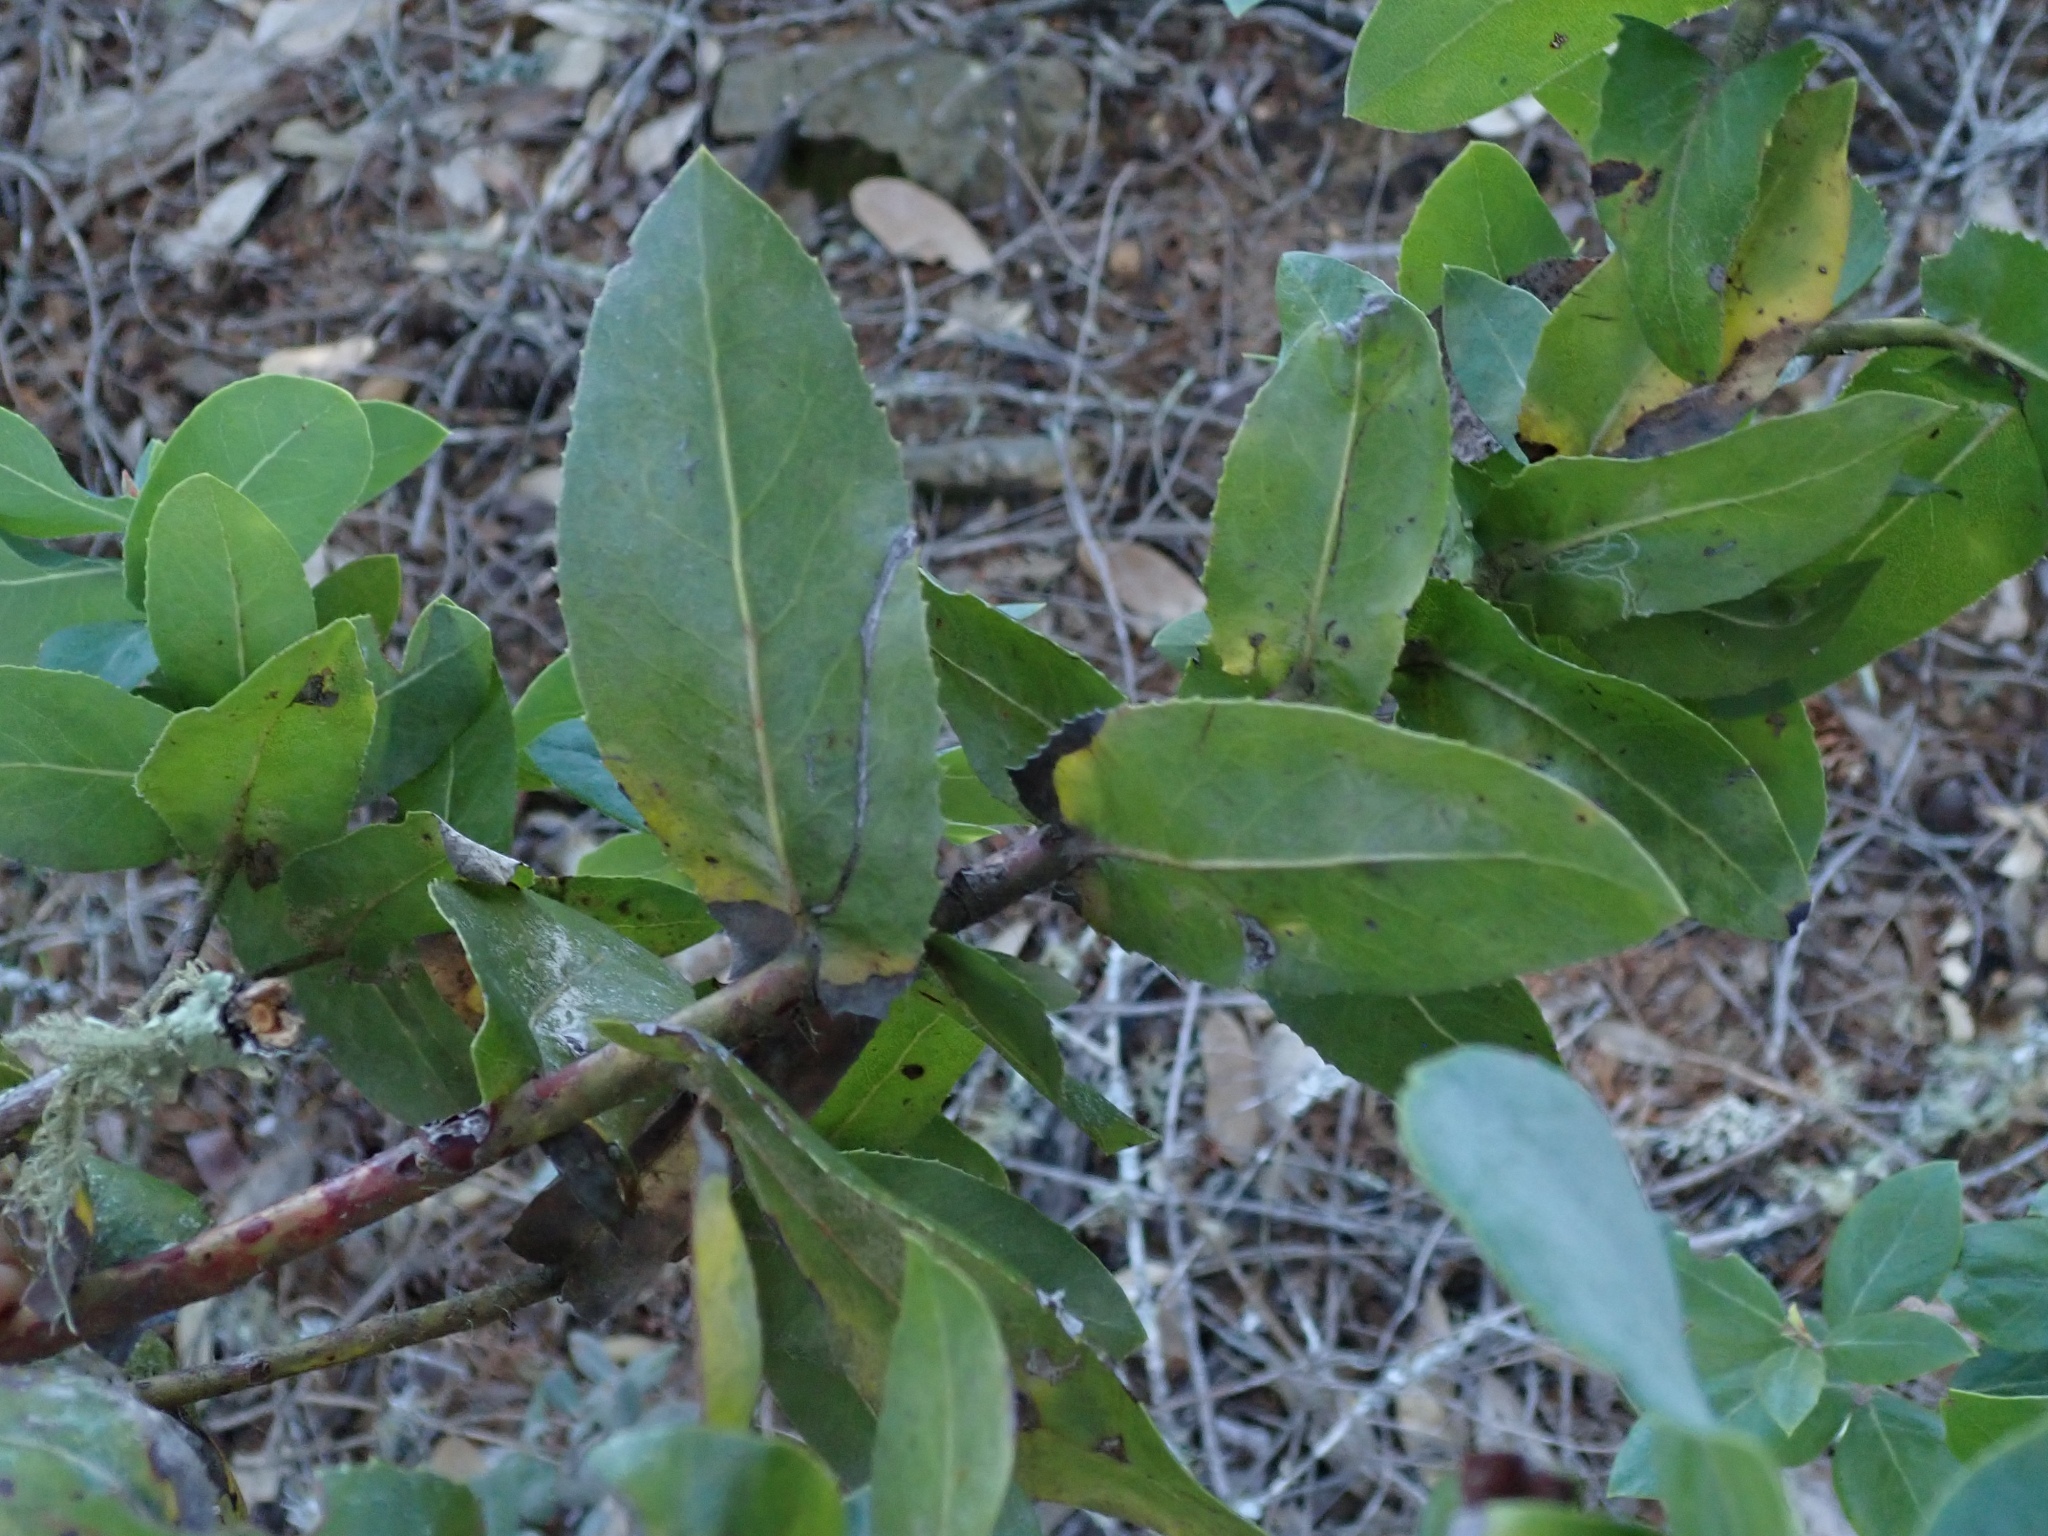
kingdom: Plantae
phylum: Tracheophyta
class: Magnoliopsida
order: Ericales
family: Ericaceae
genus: Arctostaphylos
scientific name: Arctostaphylos andersonii
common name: Santa cruz manzanita
